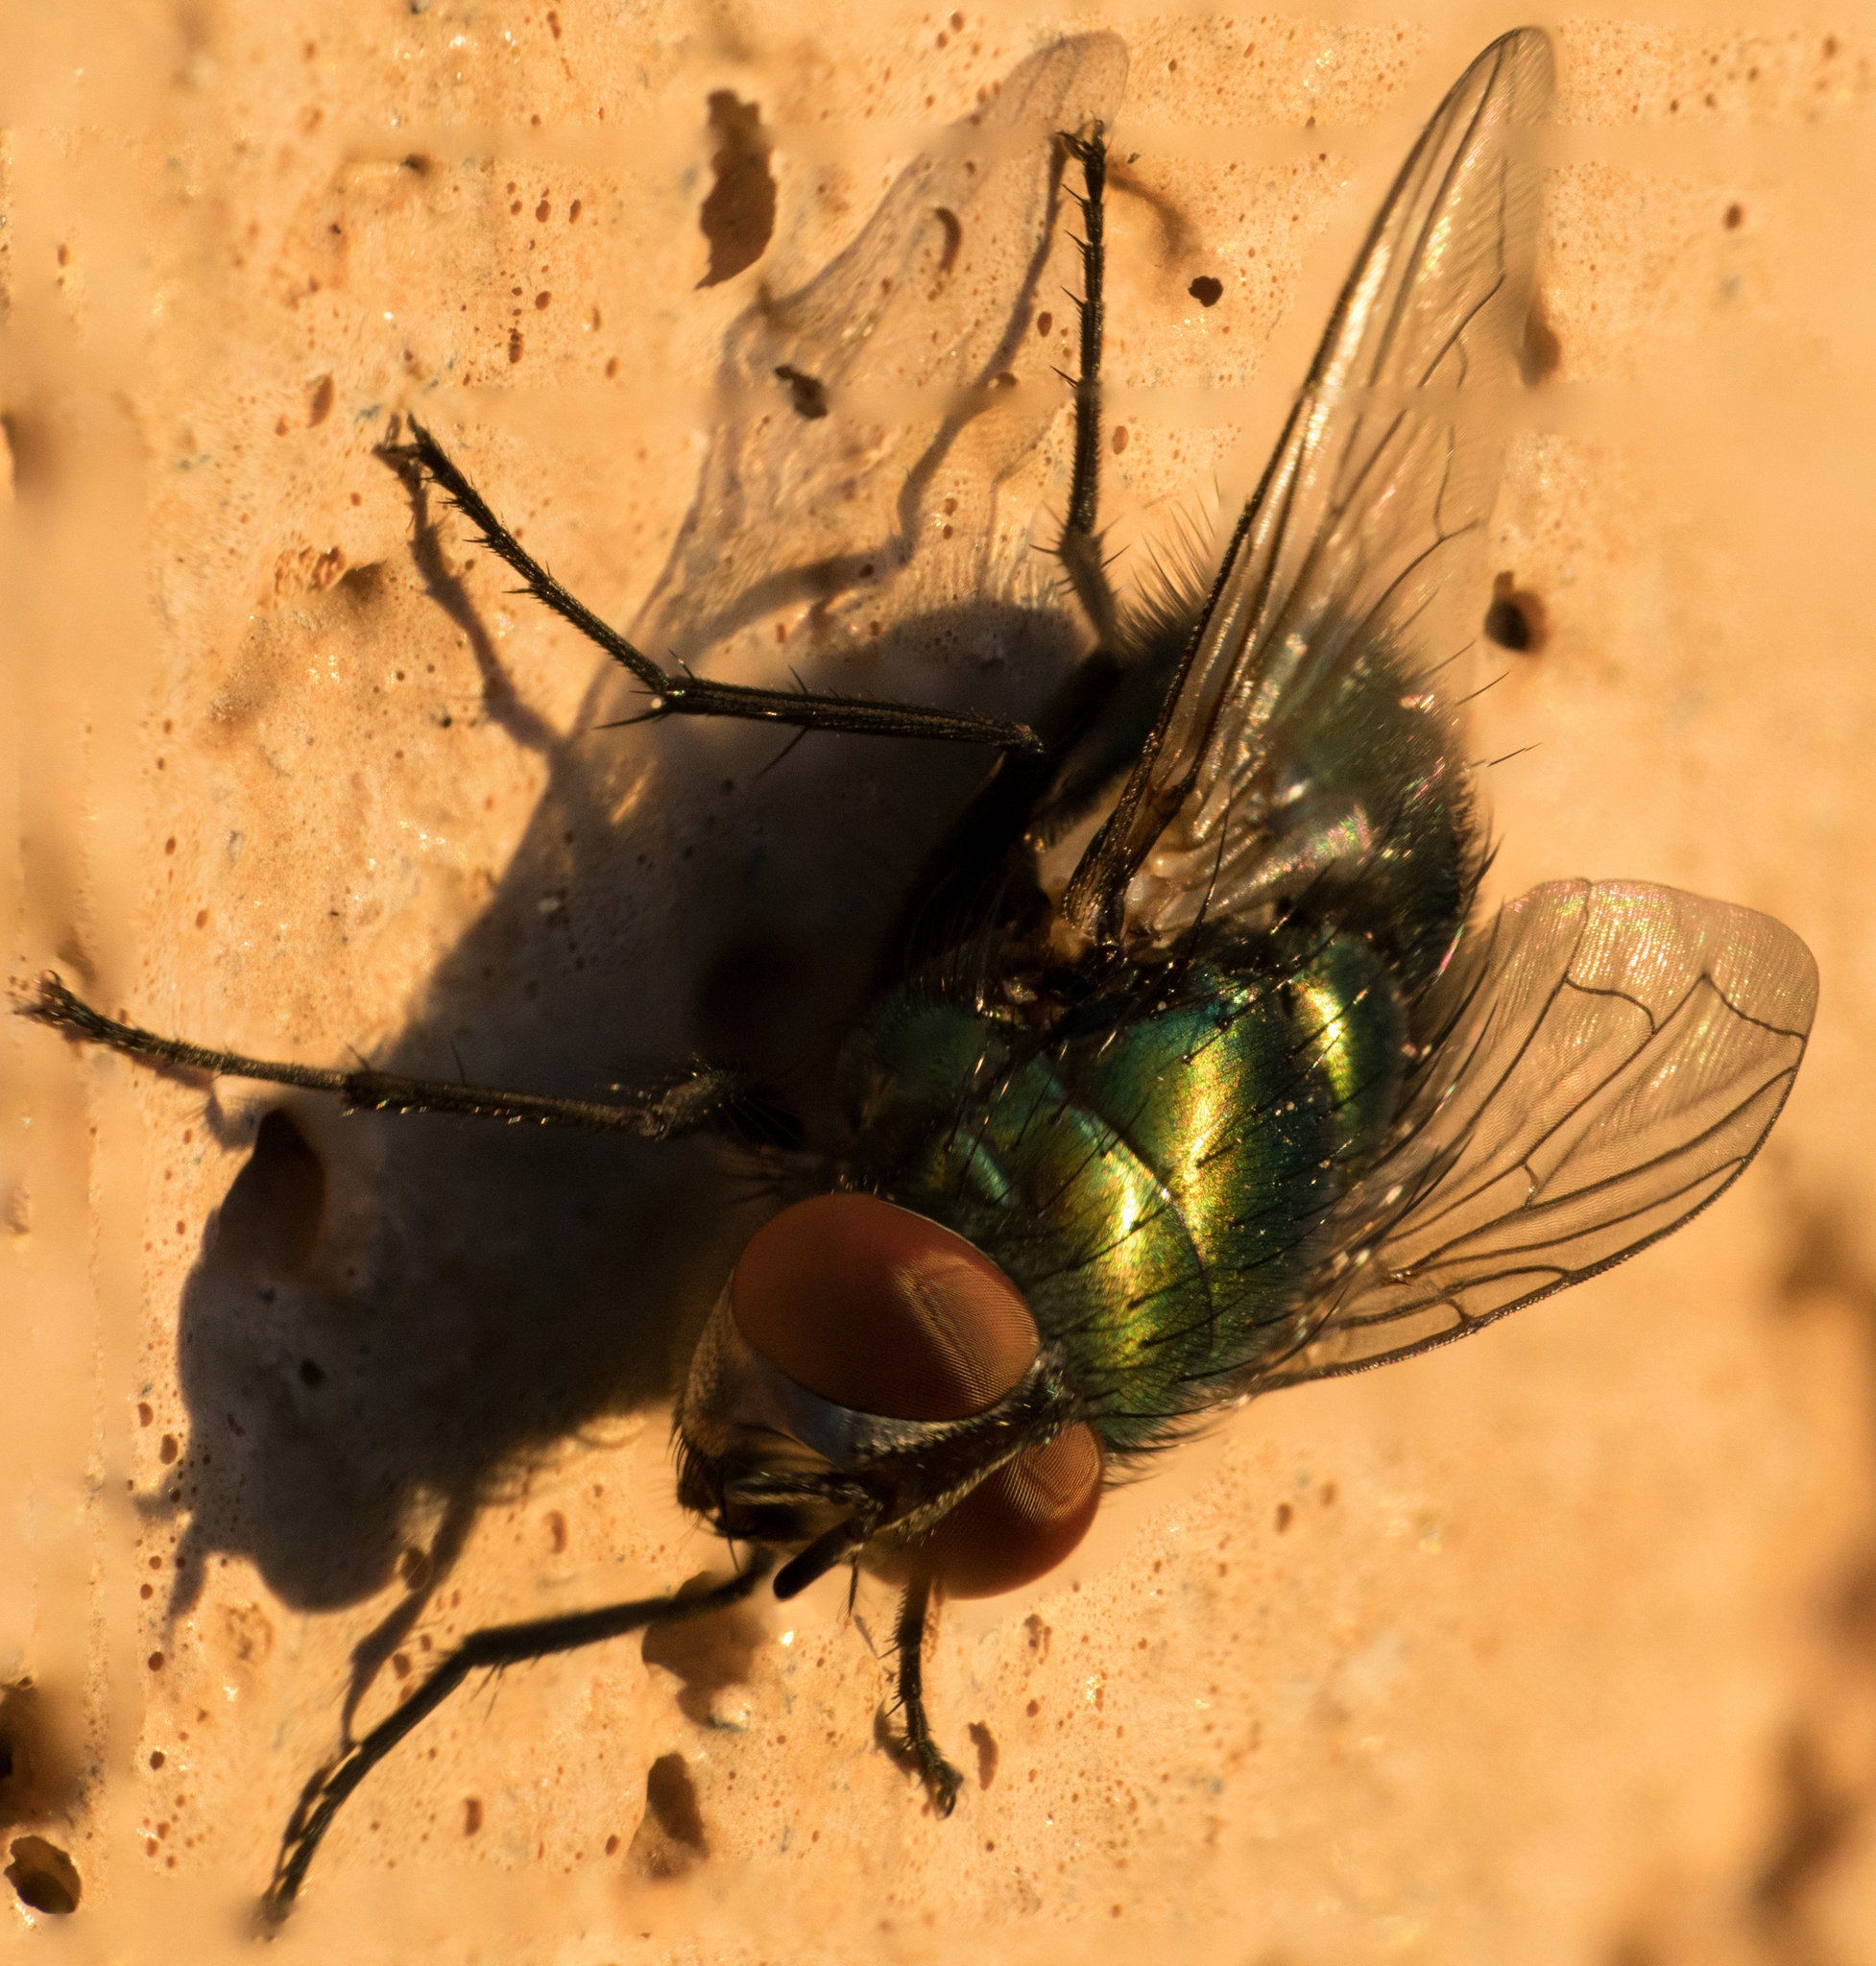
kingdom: Animalia
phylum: Arthropoda
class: Insecta
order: Diptera
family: Calliphoridae
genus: Lucilia
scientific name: Lucilia sericata
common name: Blow fly
